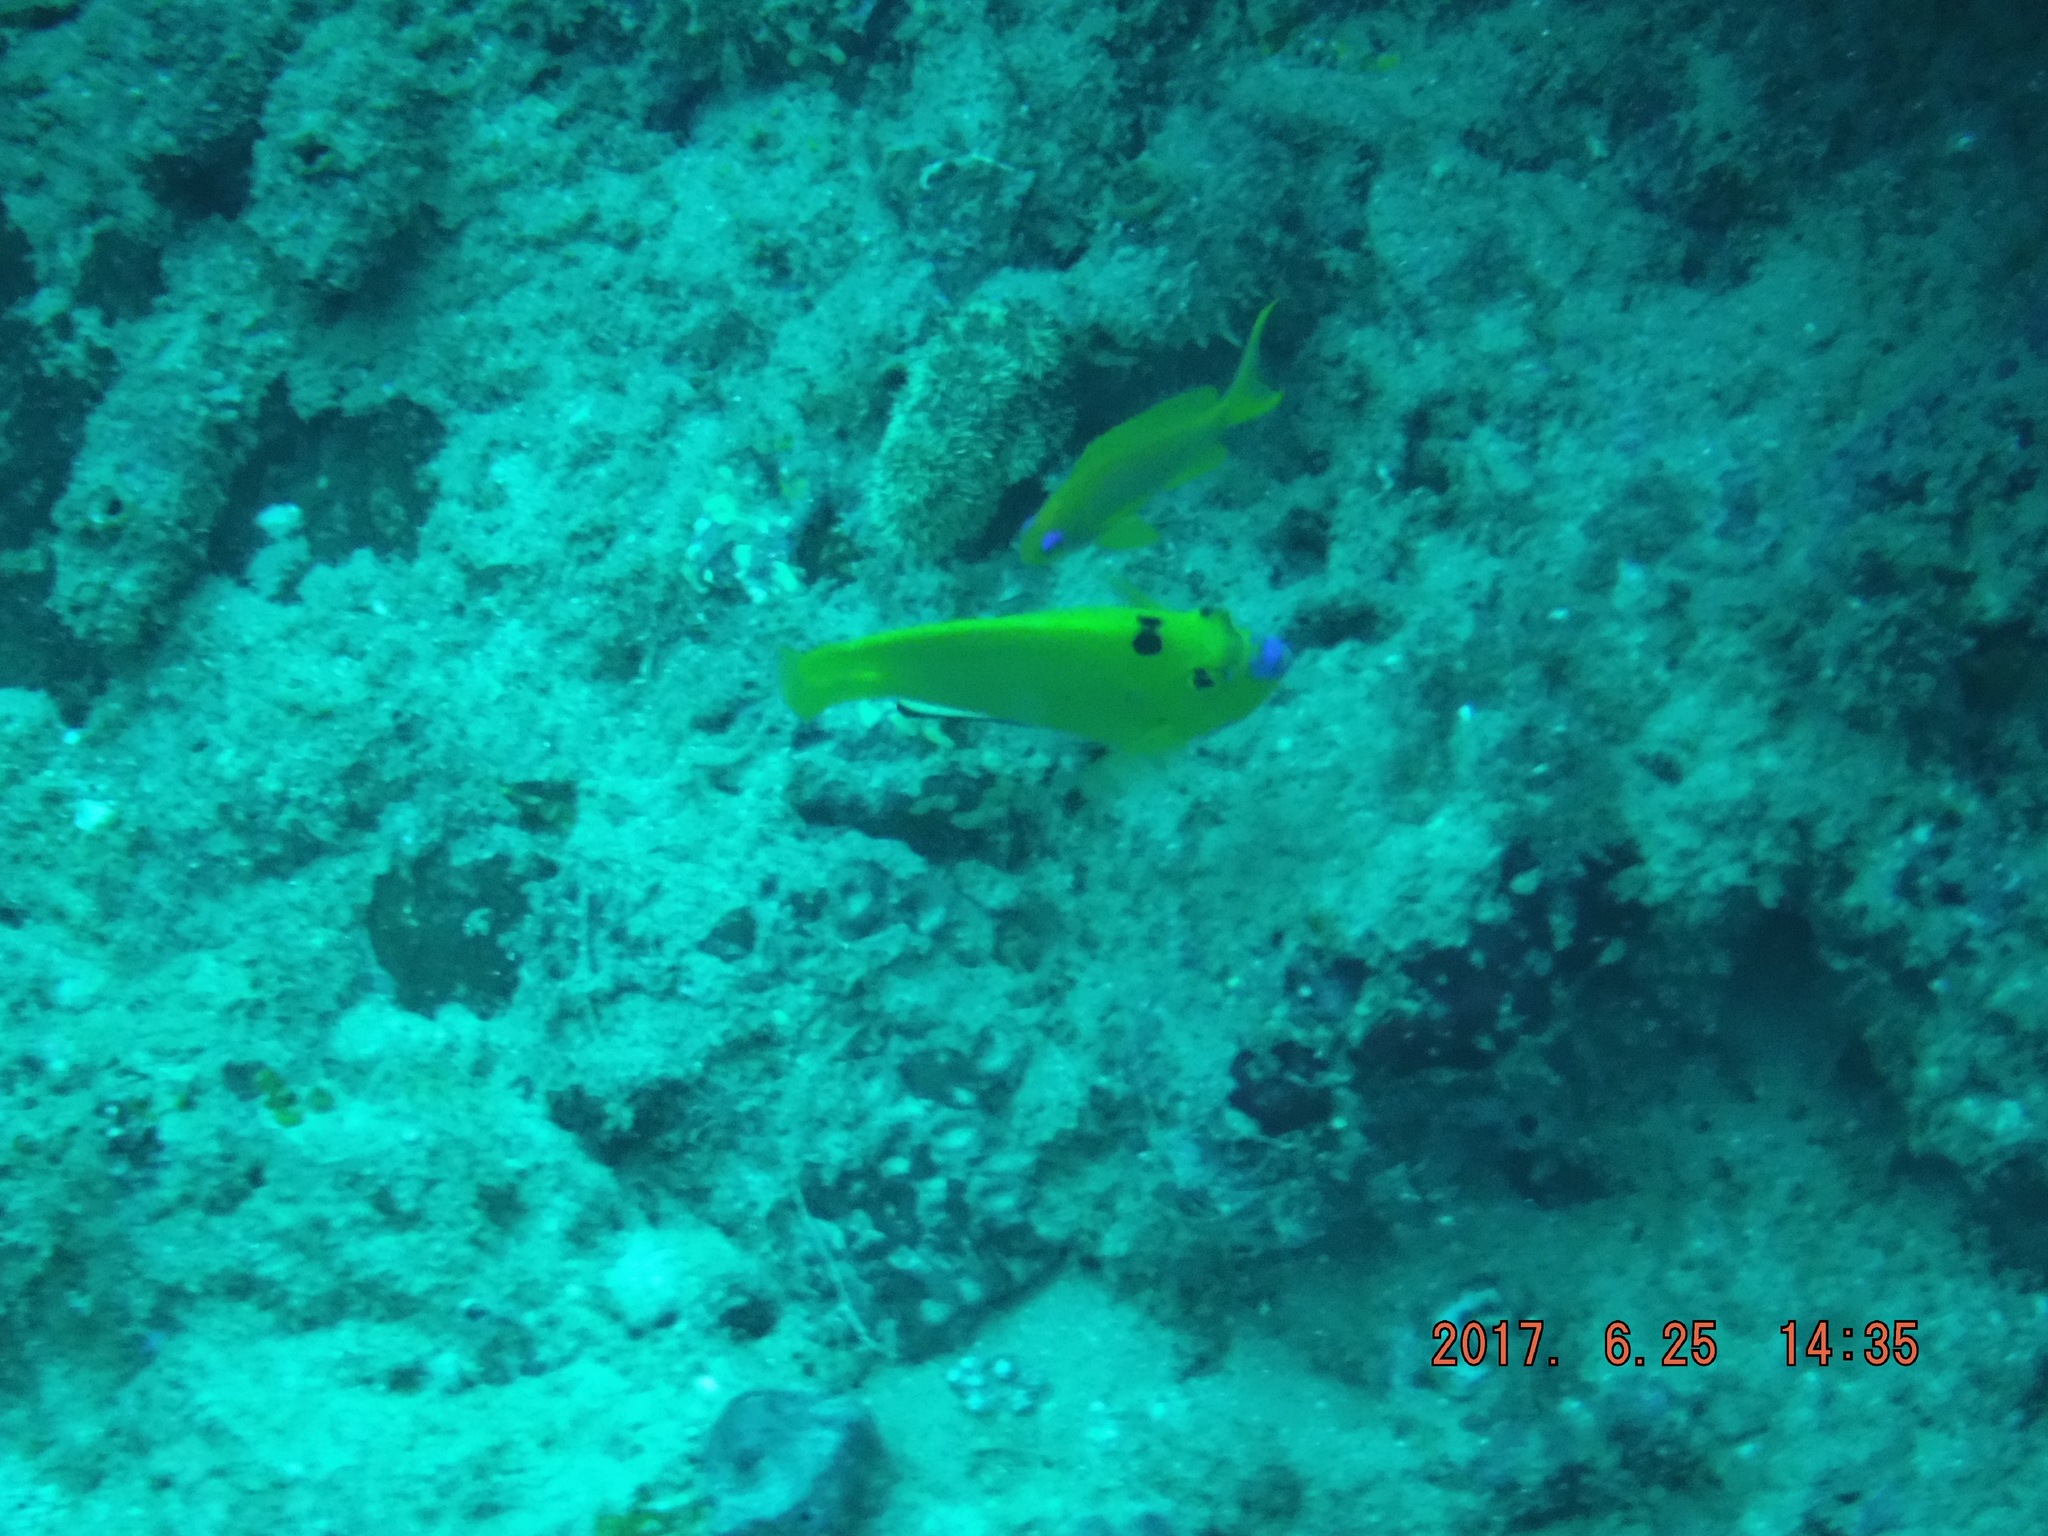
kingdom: Animalia
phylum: Chordata
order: Perciformes
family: Pomacanthidae
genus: Apolemichthys
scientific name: Apolemichthys trimaculatus
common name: Threespot angelfish
